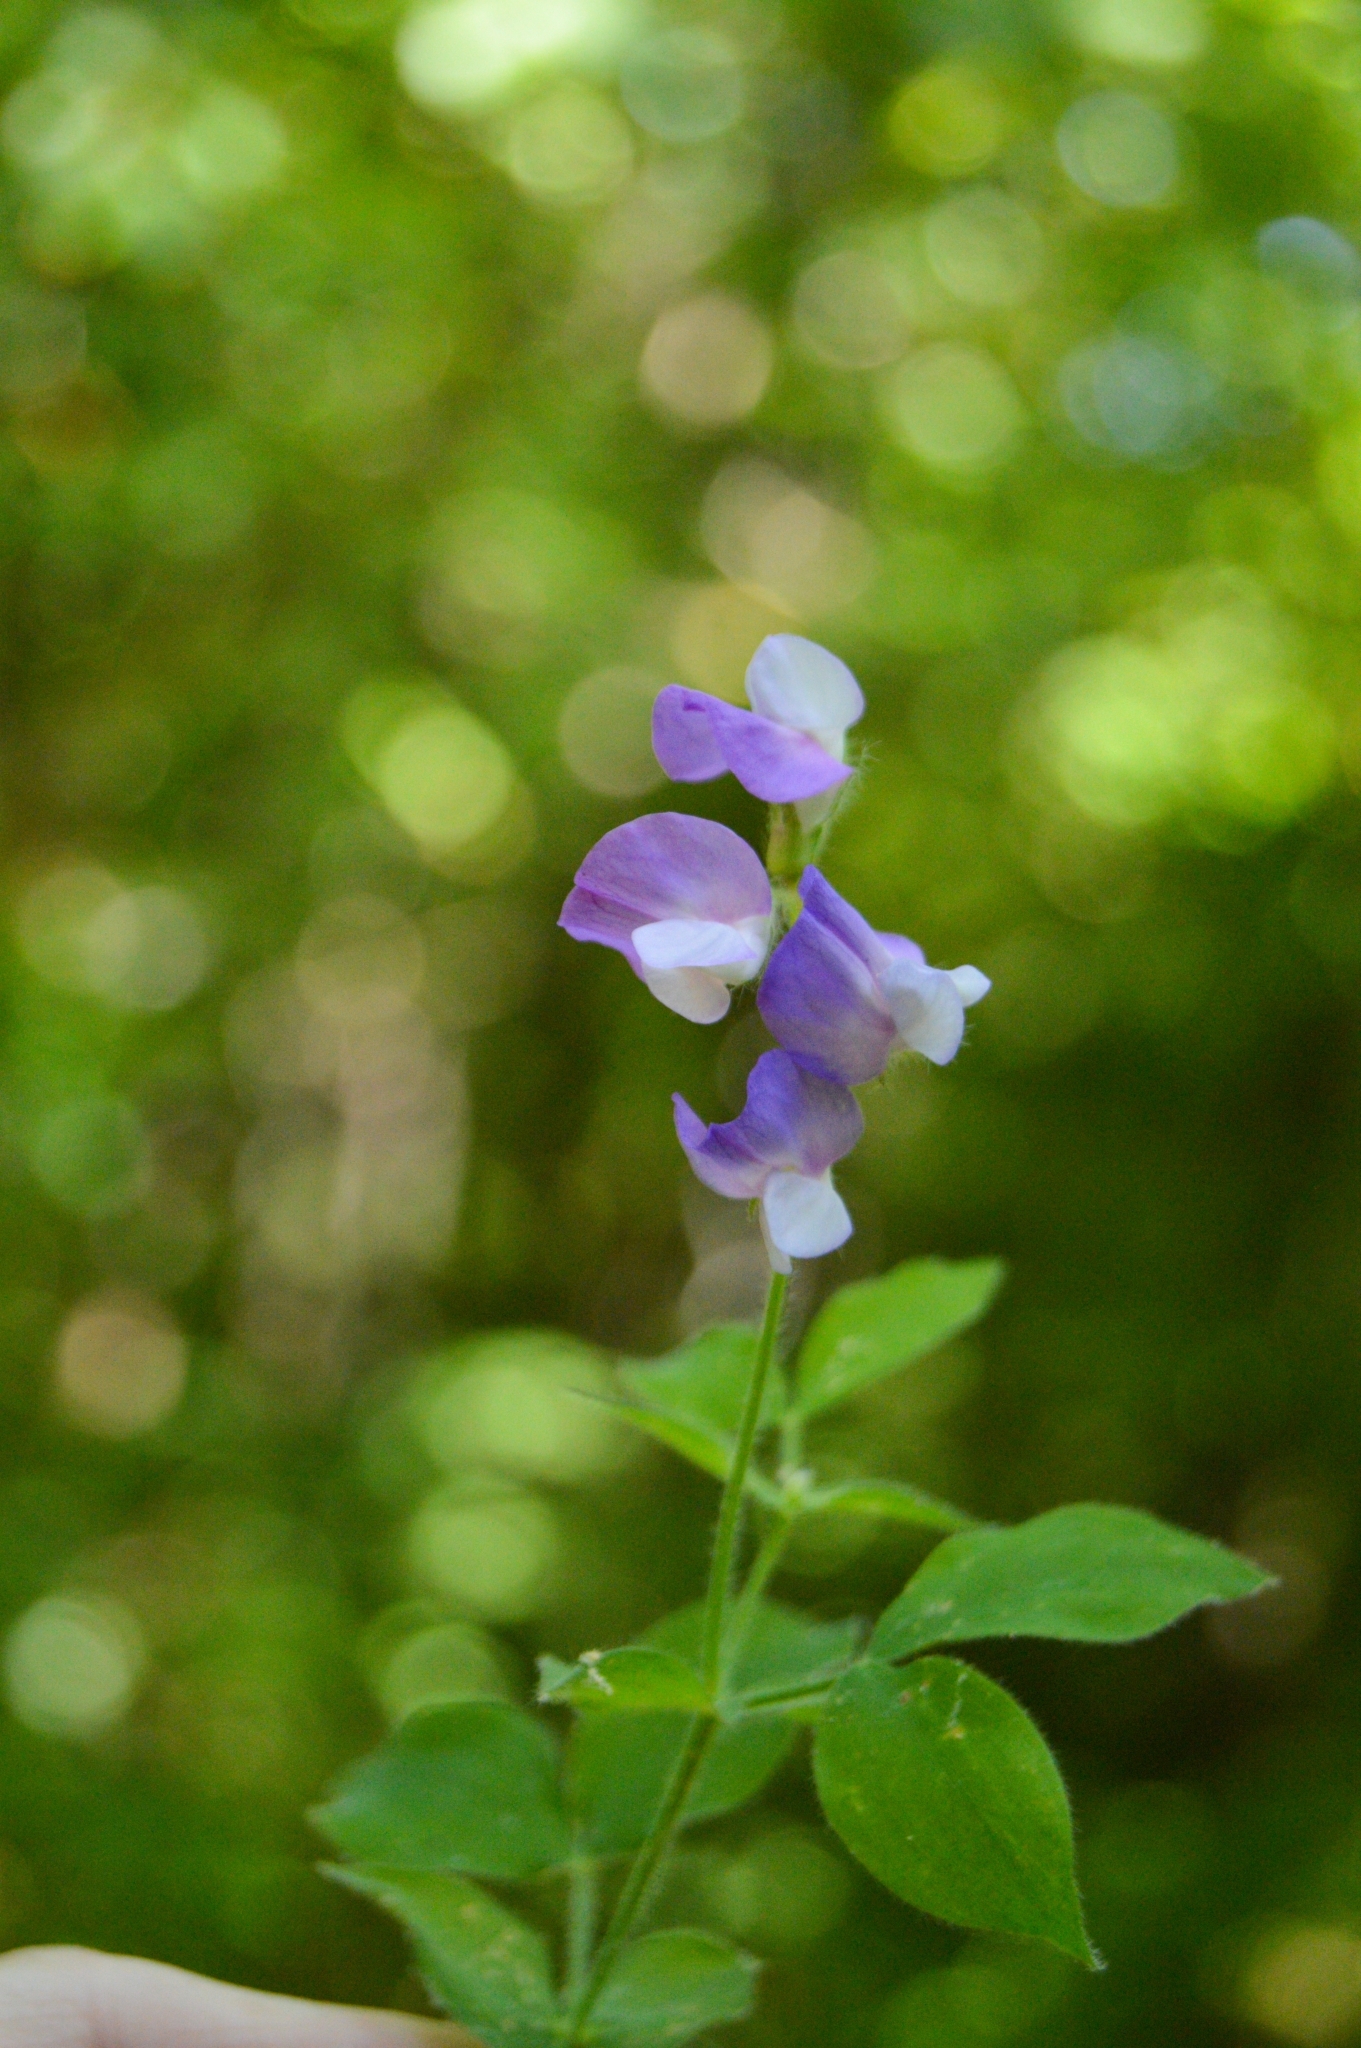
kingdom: Plantae
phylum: Tracheophyta
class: Magnoliopsida
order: Fabales
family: Fabaceae
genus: Lathyrus
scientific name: Lathyrus laxiflorus
